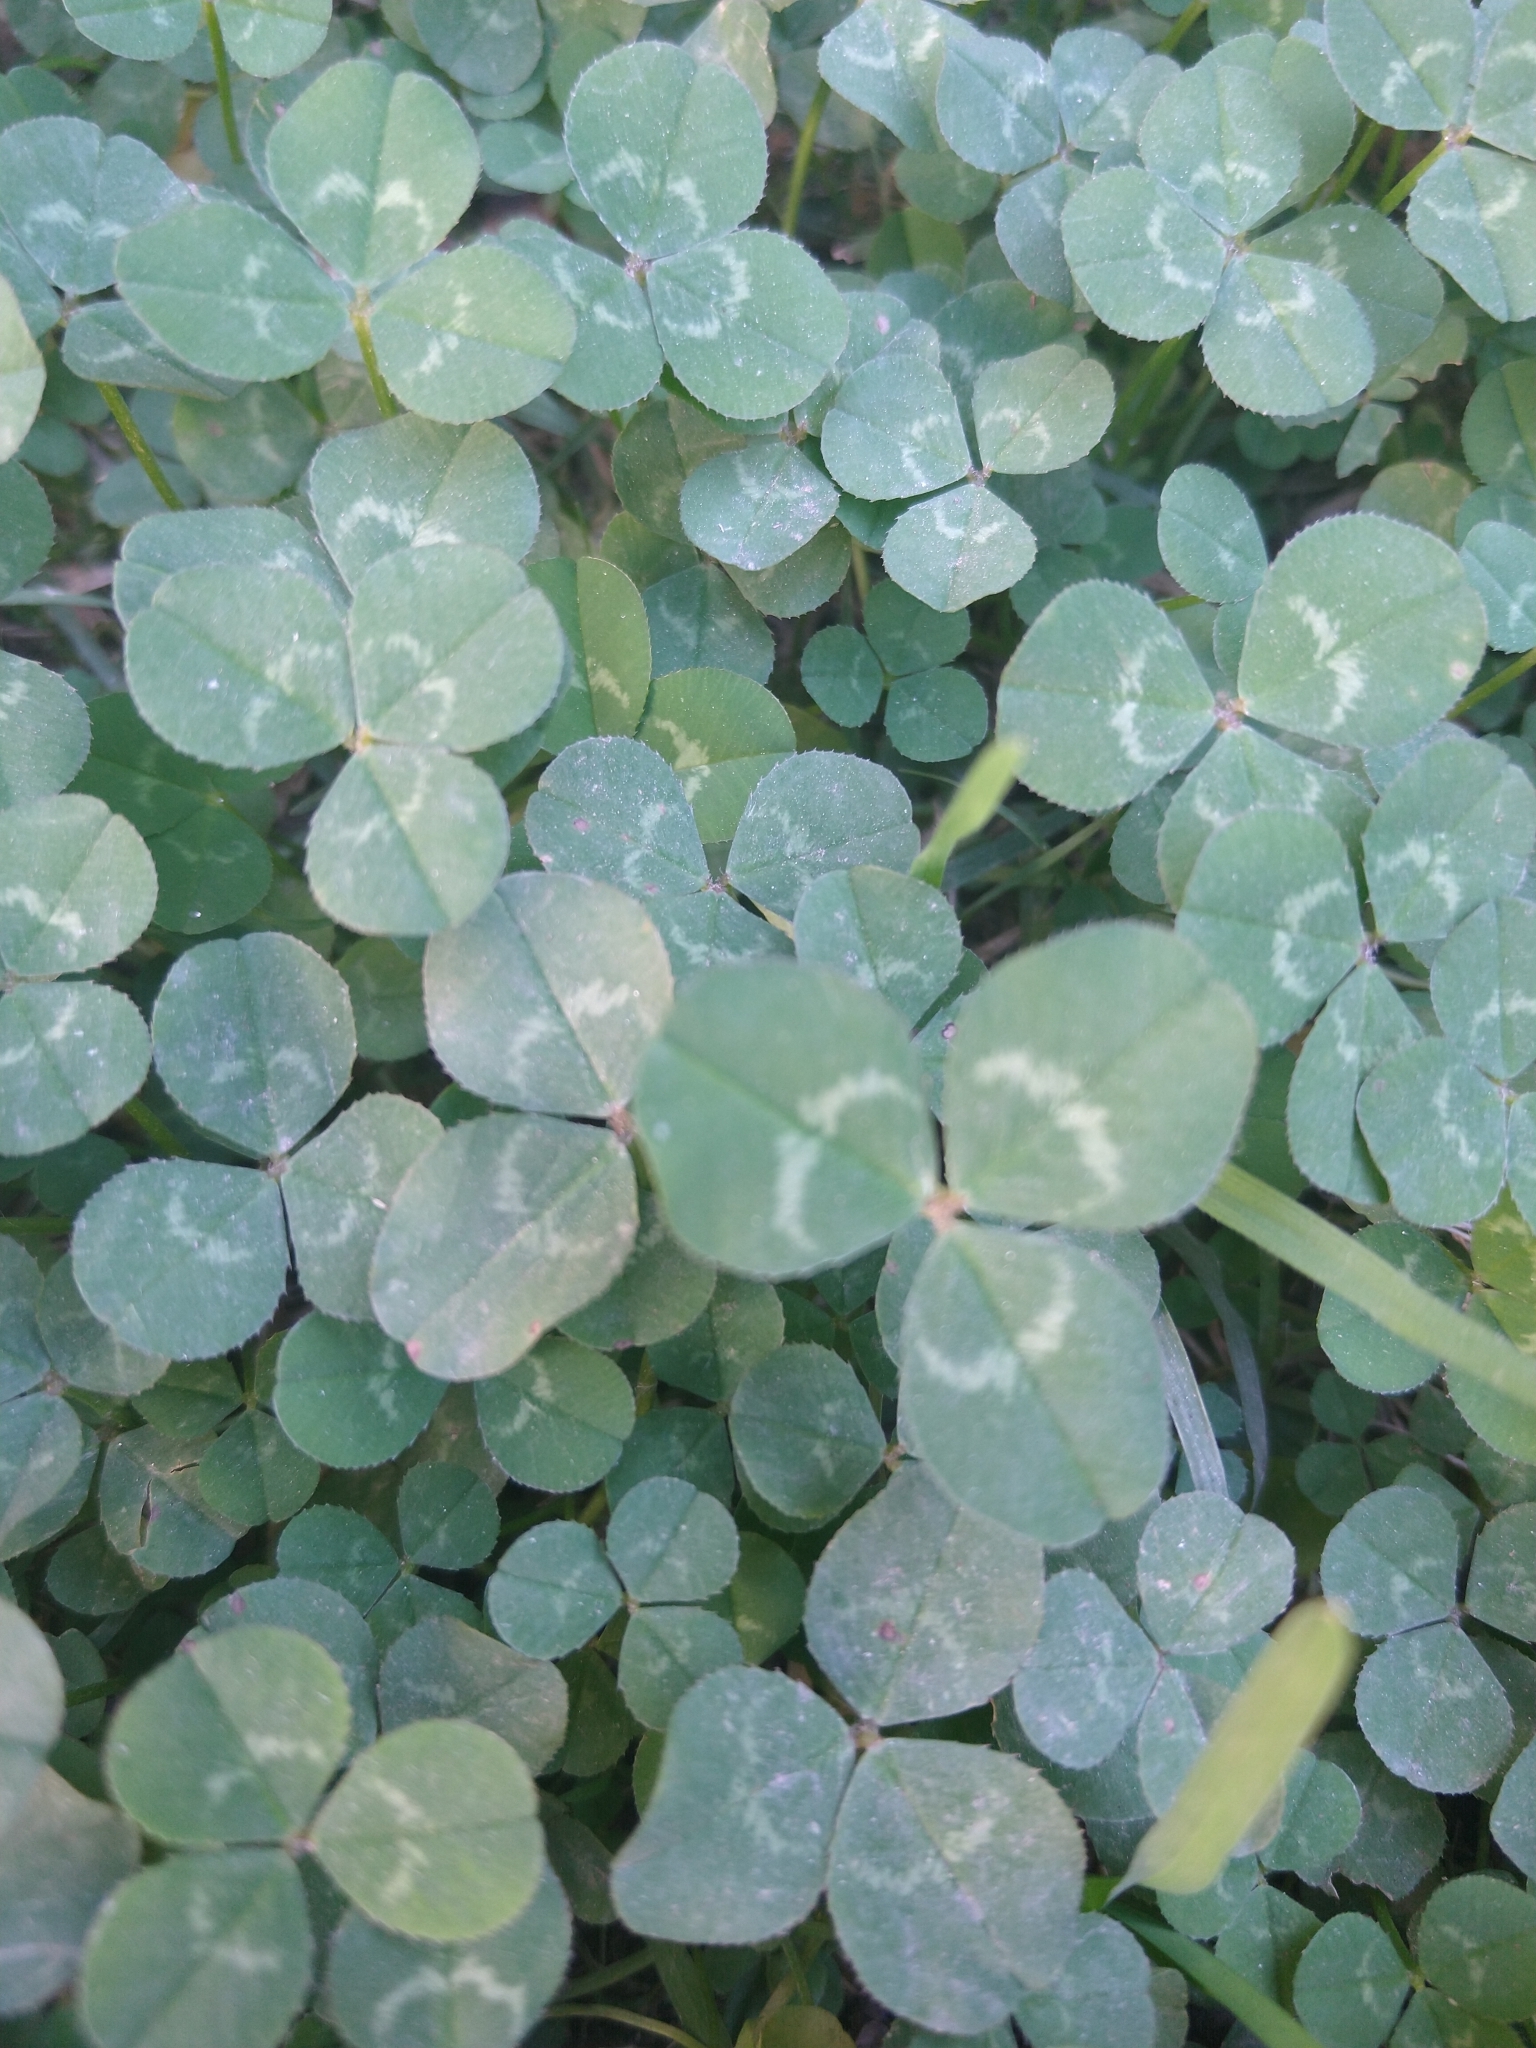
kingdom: Plantae
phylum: Tracheophyta
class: Magnoliopsida
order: Fabales
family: Fabaceae
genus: Trifolium
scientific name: Trifolium repens
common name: White clover
